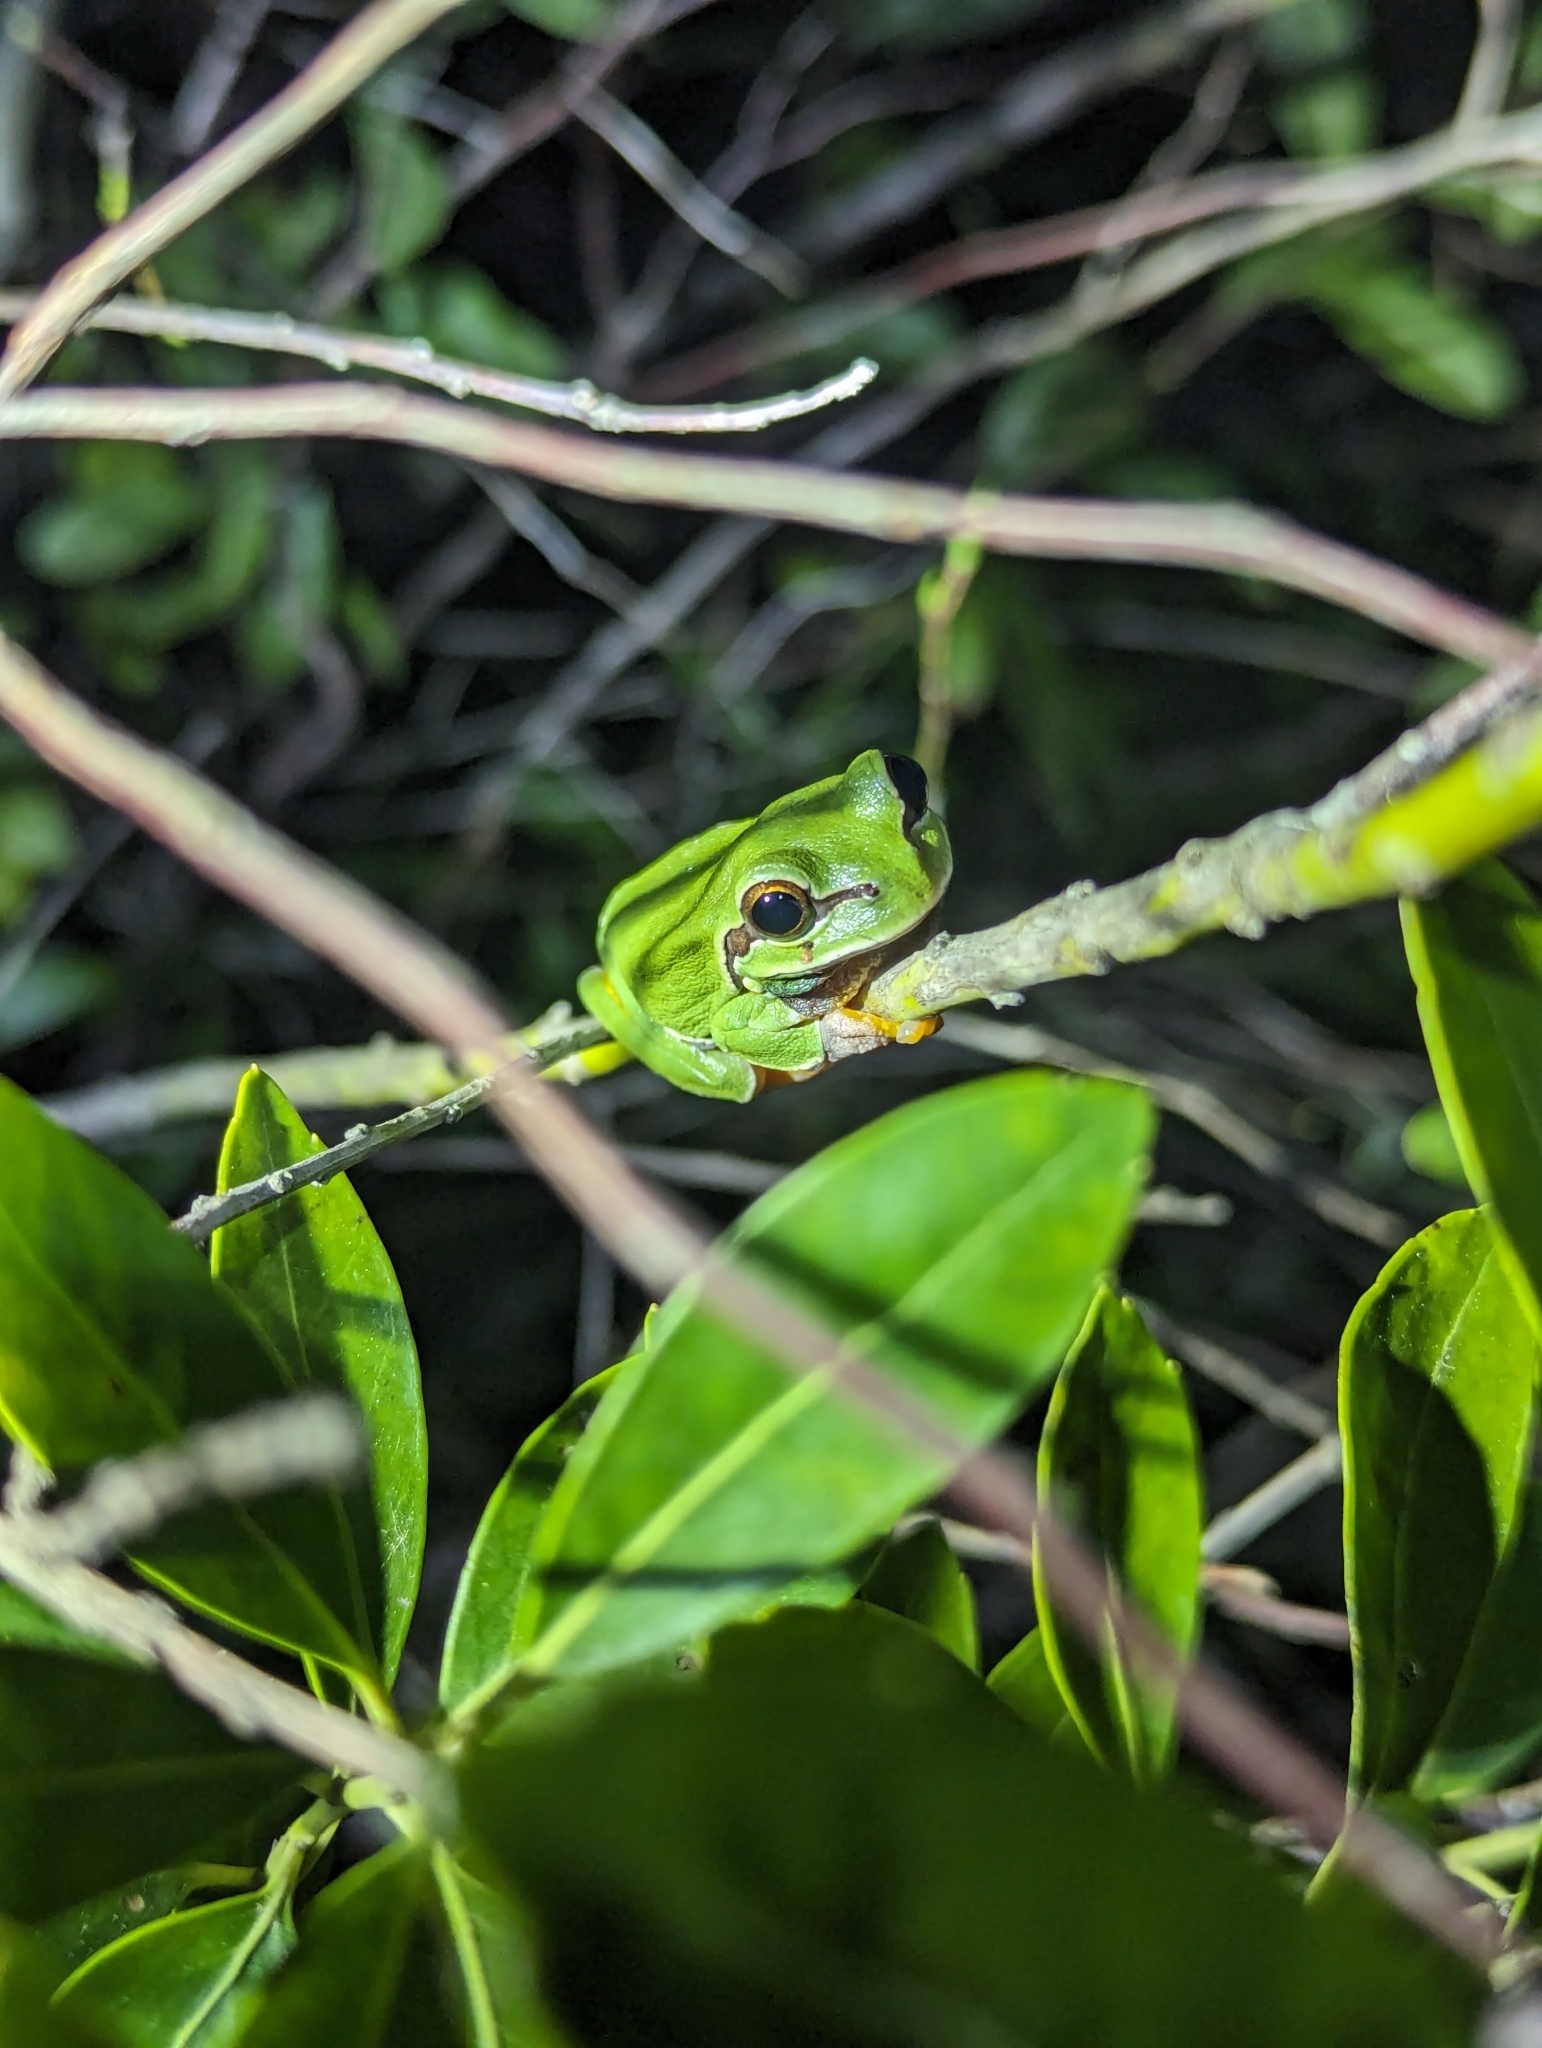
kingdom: Animalia
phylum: Chordata
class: Amphibia
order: Anura
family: Hylidae
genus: Dryophytes
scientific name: Dryophytes andersonii
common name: Pine barrens treefrog
